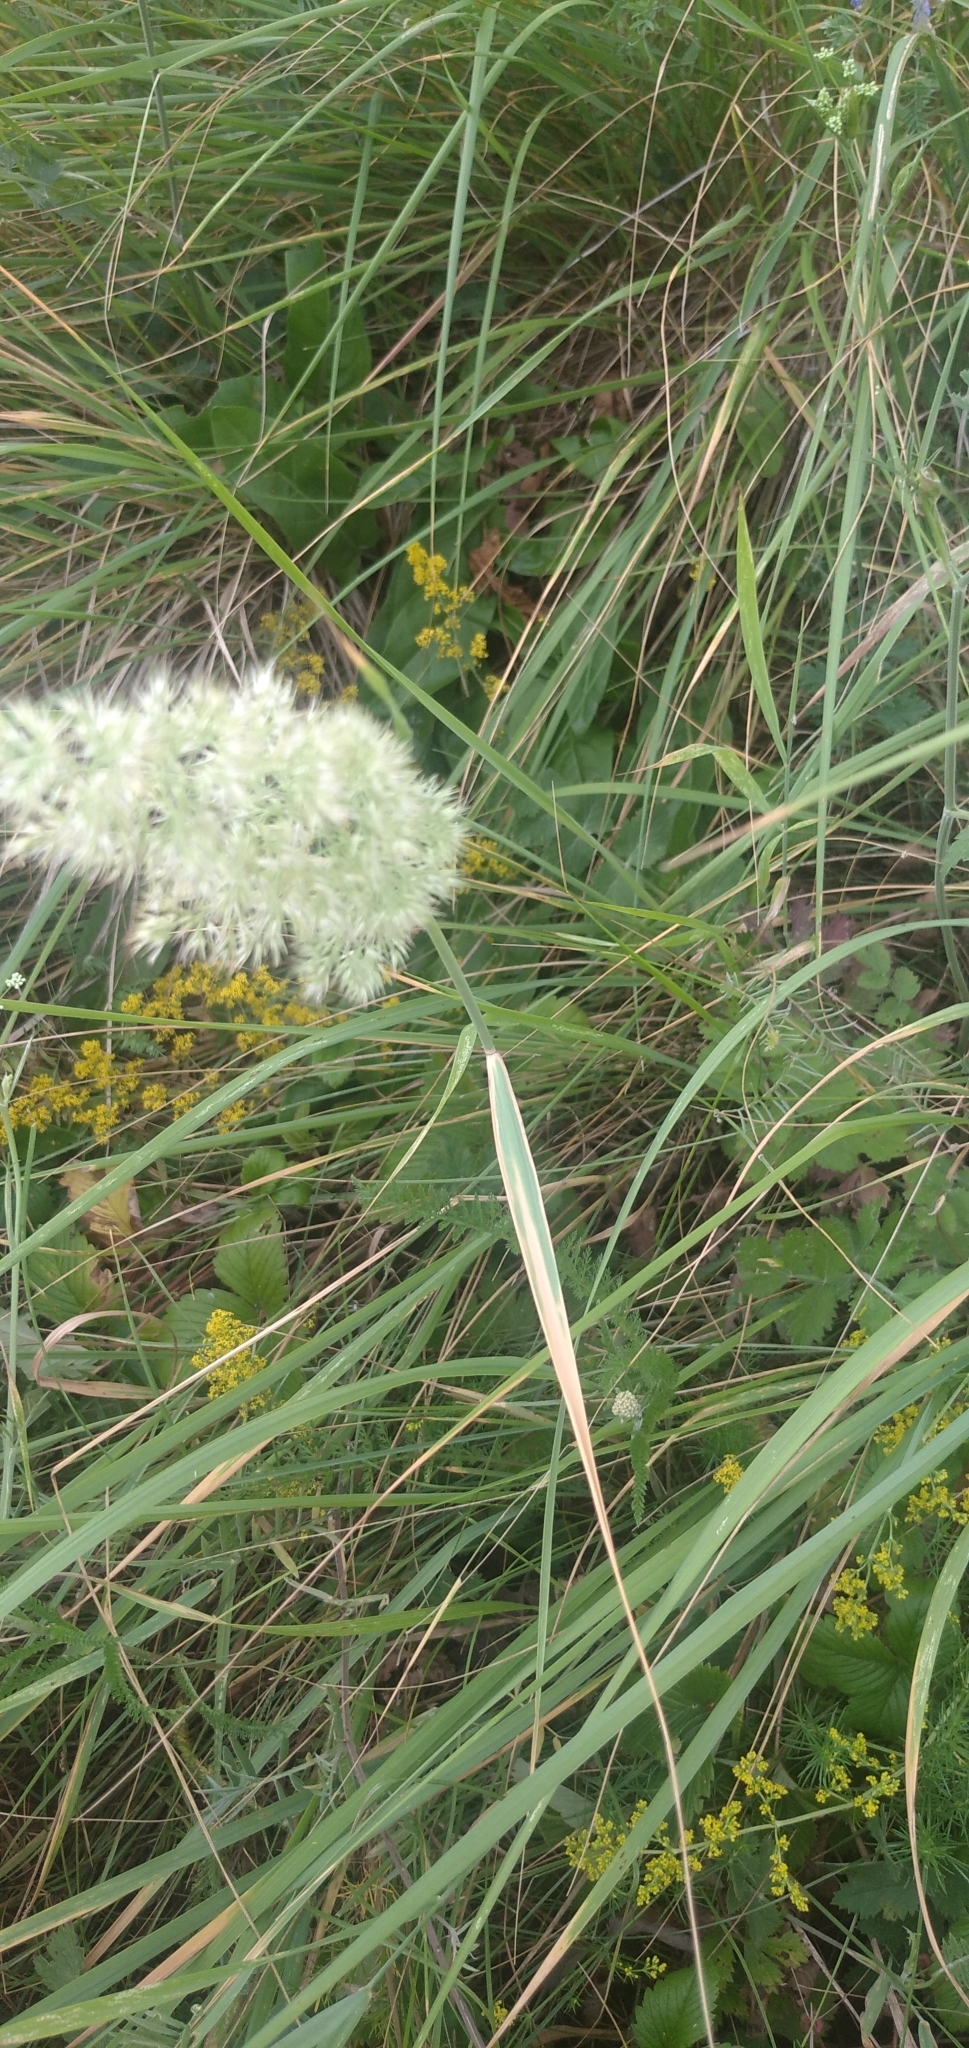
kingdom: Plantae
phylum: Tracheophyta
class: Liliopsida
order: Poales
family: Poaceae
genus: Calamagrostis
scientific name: Calamagrostis epigejos
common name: Wood small-reed
